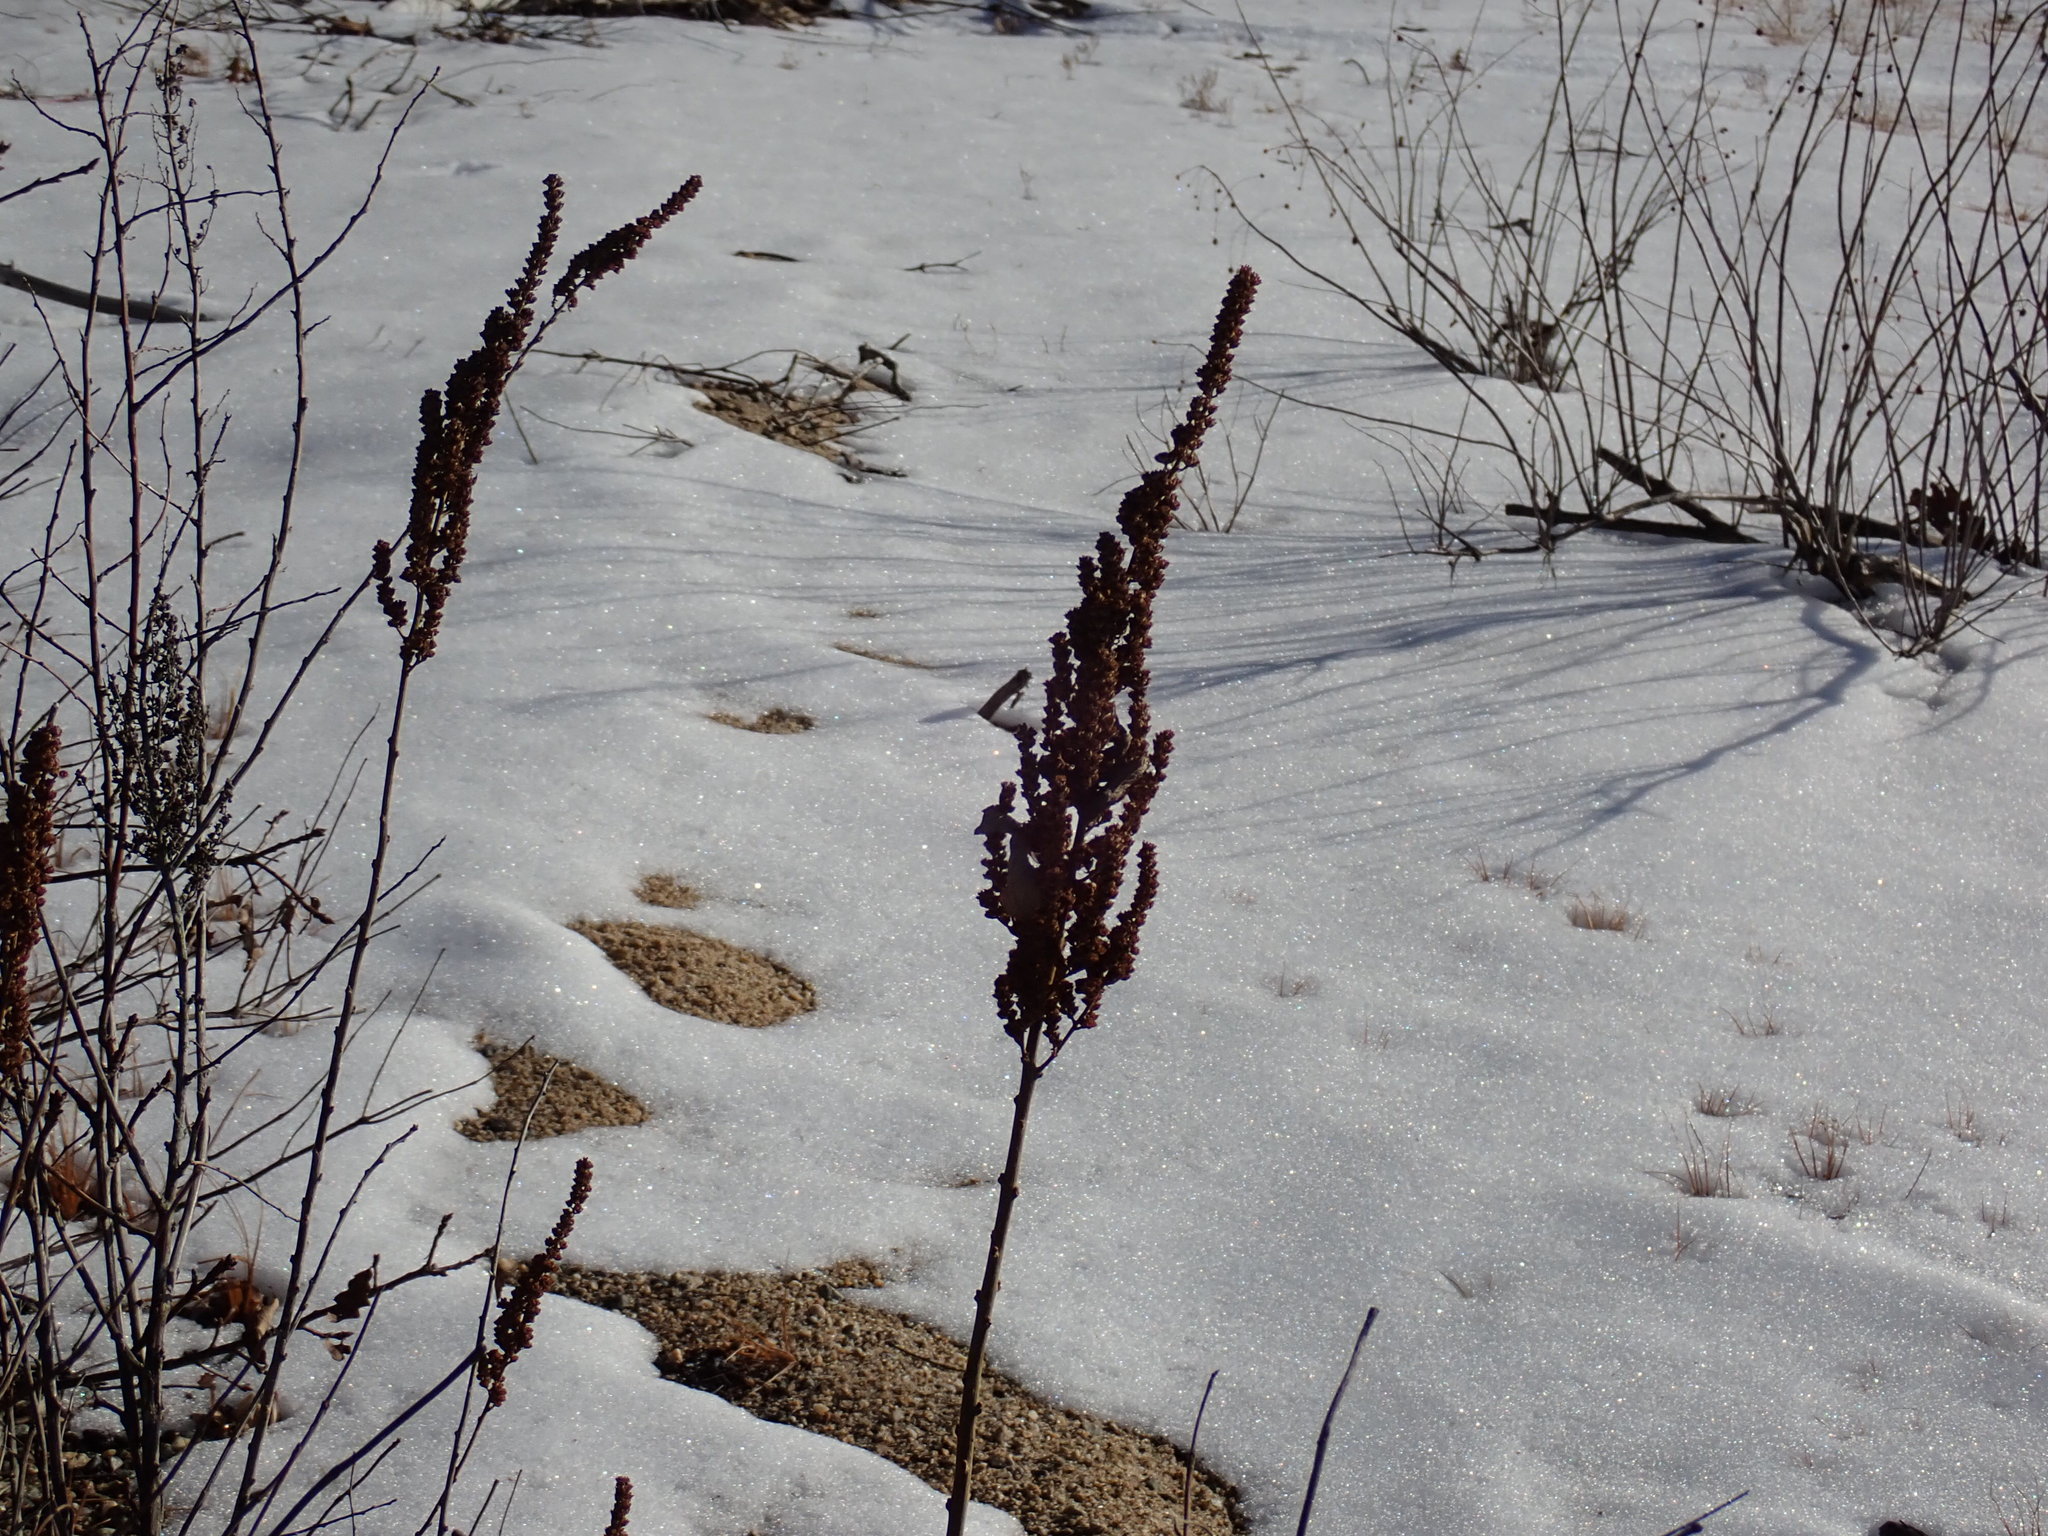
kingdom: Plantae
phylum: Tracheophyta
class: Magnoliopsida
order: Rosales
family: Rosaceae
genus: Spiraea
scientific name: Spiraea tomentosa
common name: Hardhack
